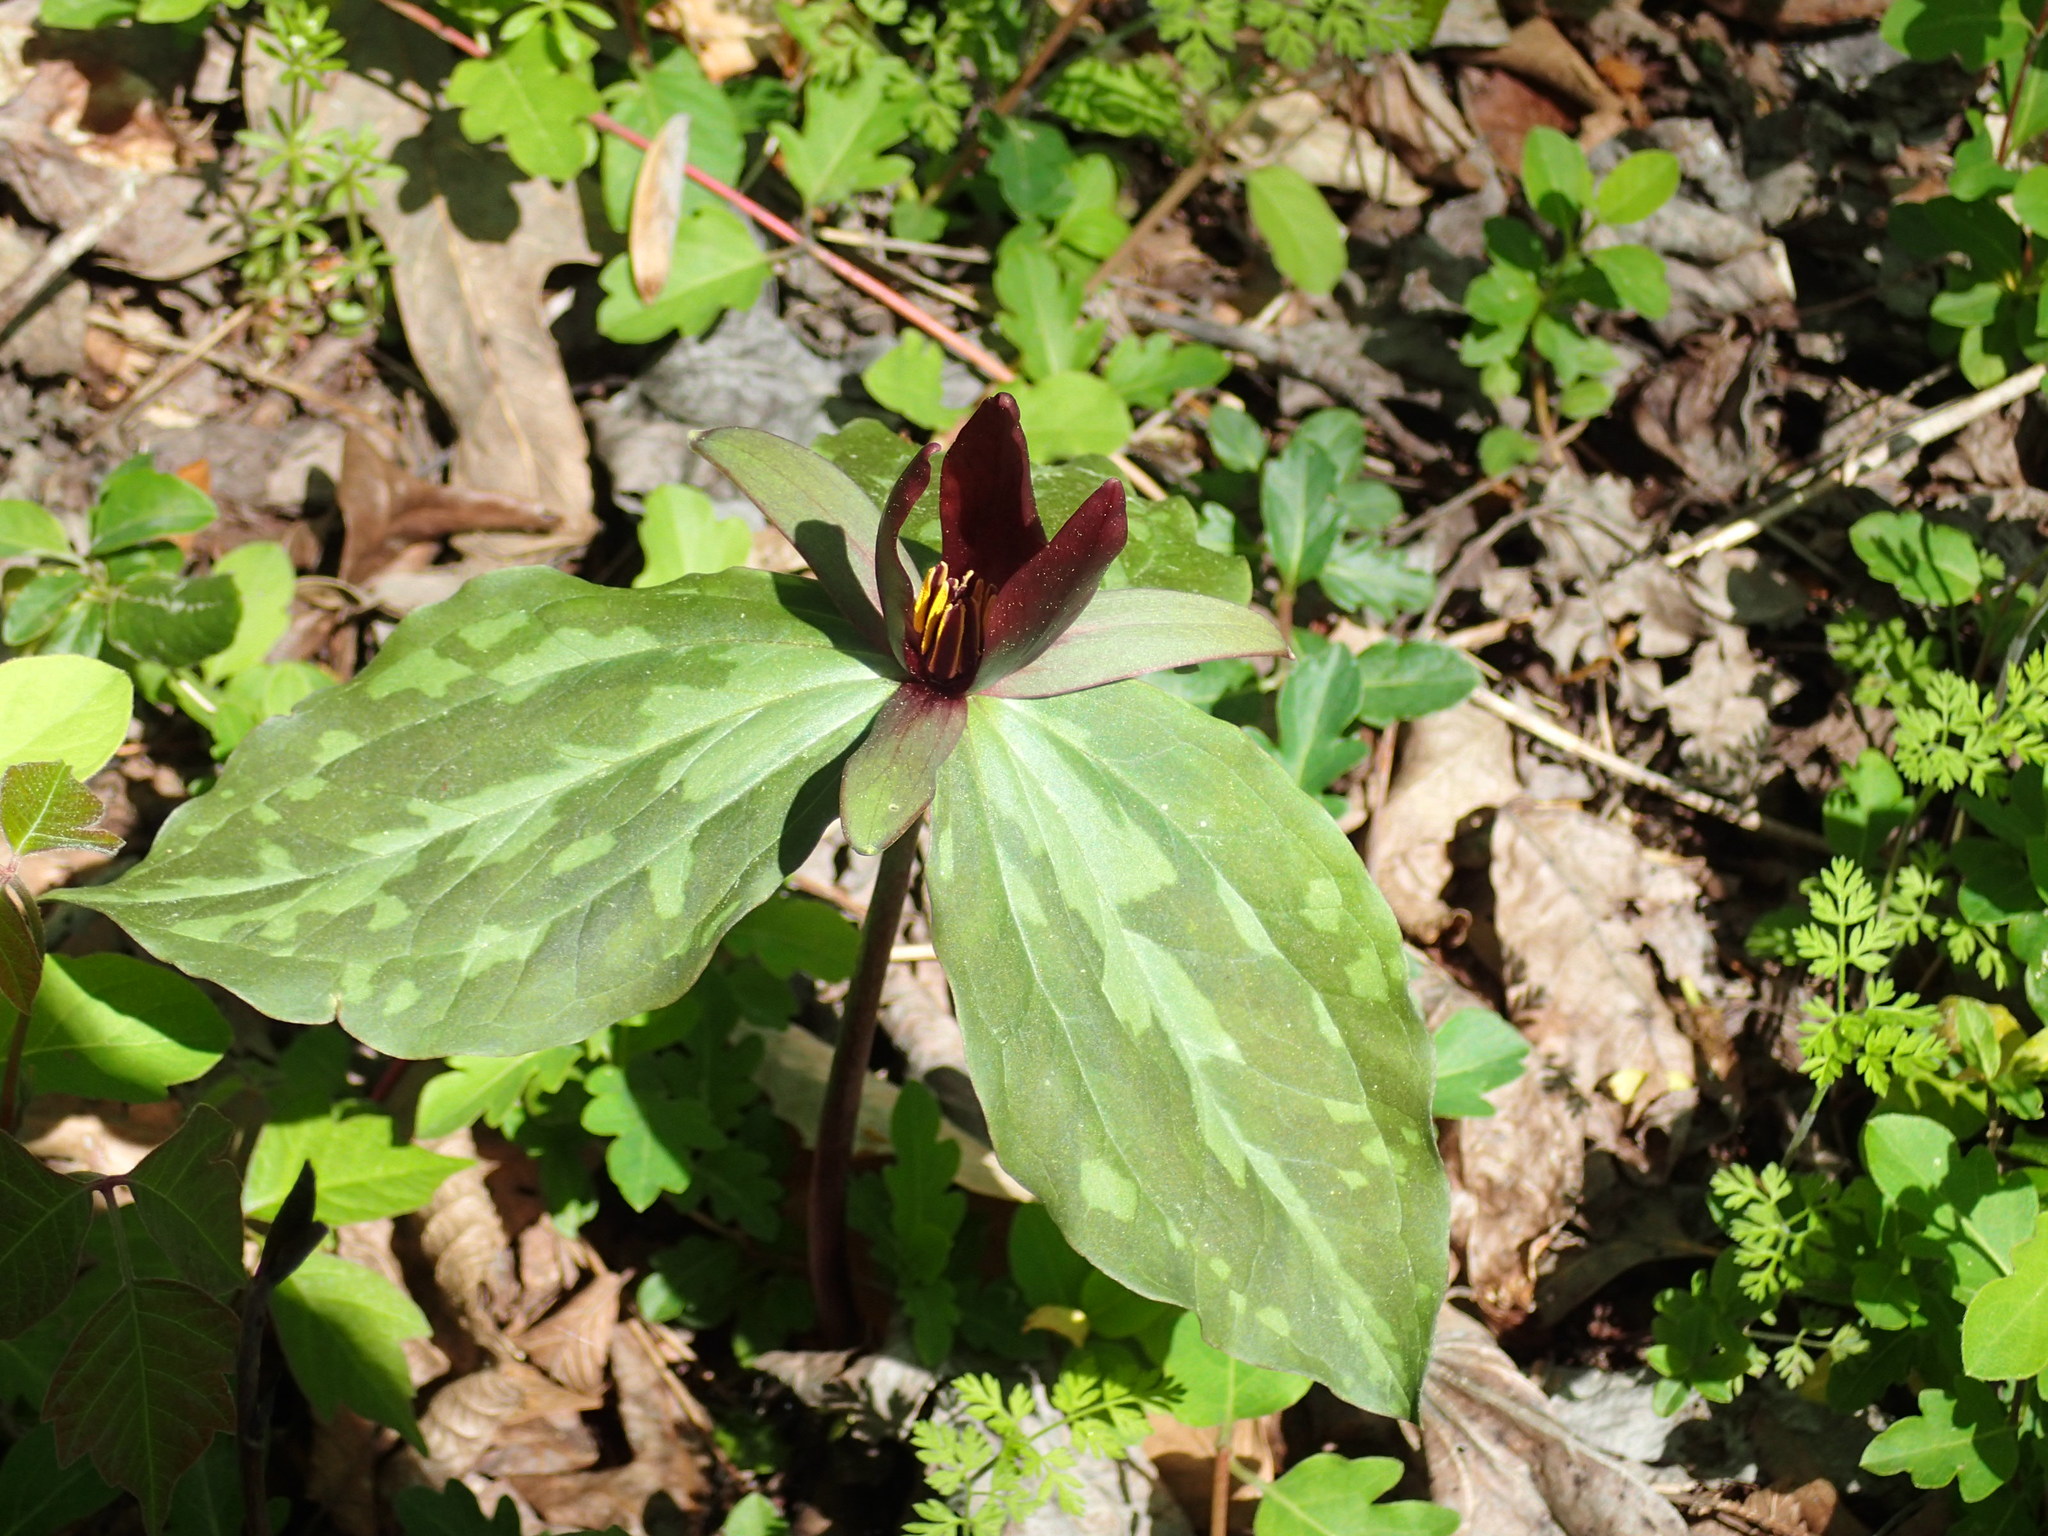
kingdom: Plantae
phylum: Tracheophyta
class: Liliopsida
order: Liliales
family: Melanthiaceae
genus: Trillium
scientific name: Trillium cuneatum
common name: Cuneate trillium
